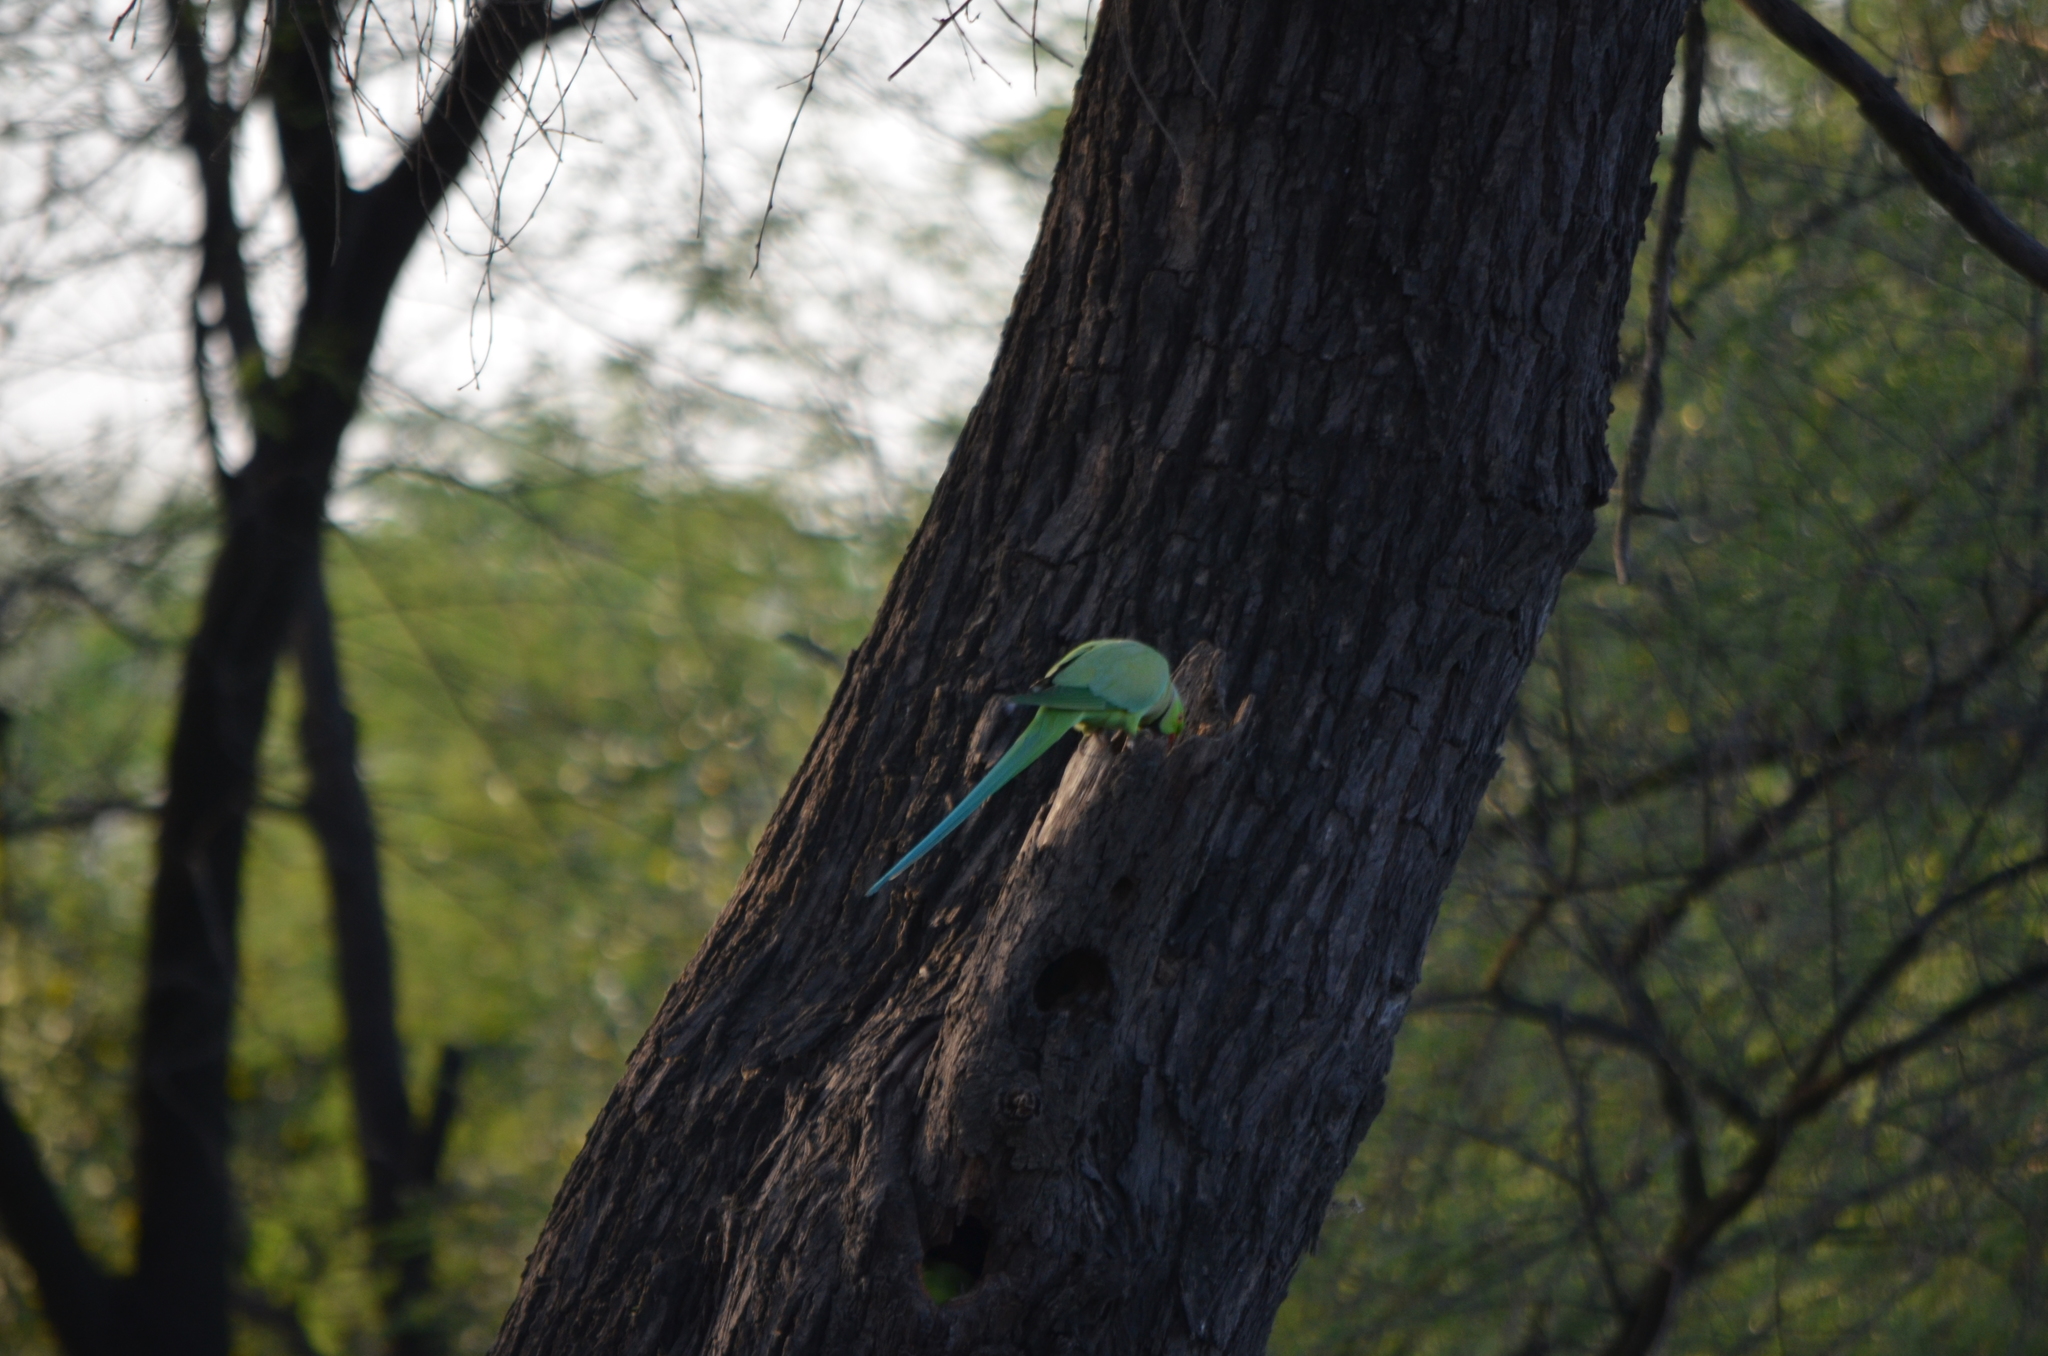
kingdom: Animalia
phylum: Chordata
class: Aves
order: Psittaciformes
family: Psittacidae
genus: Psittacula
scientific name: Psittacula krameri
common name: Rose-ringed parakeet
